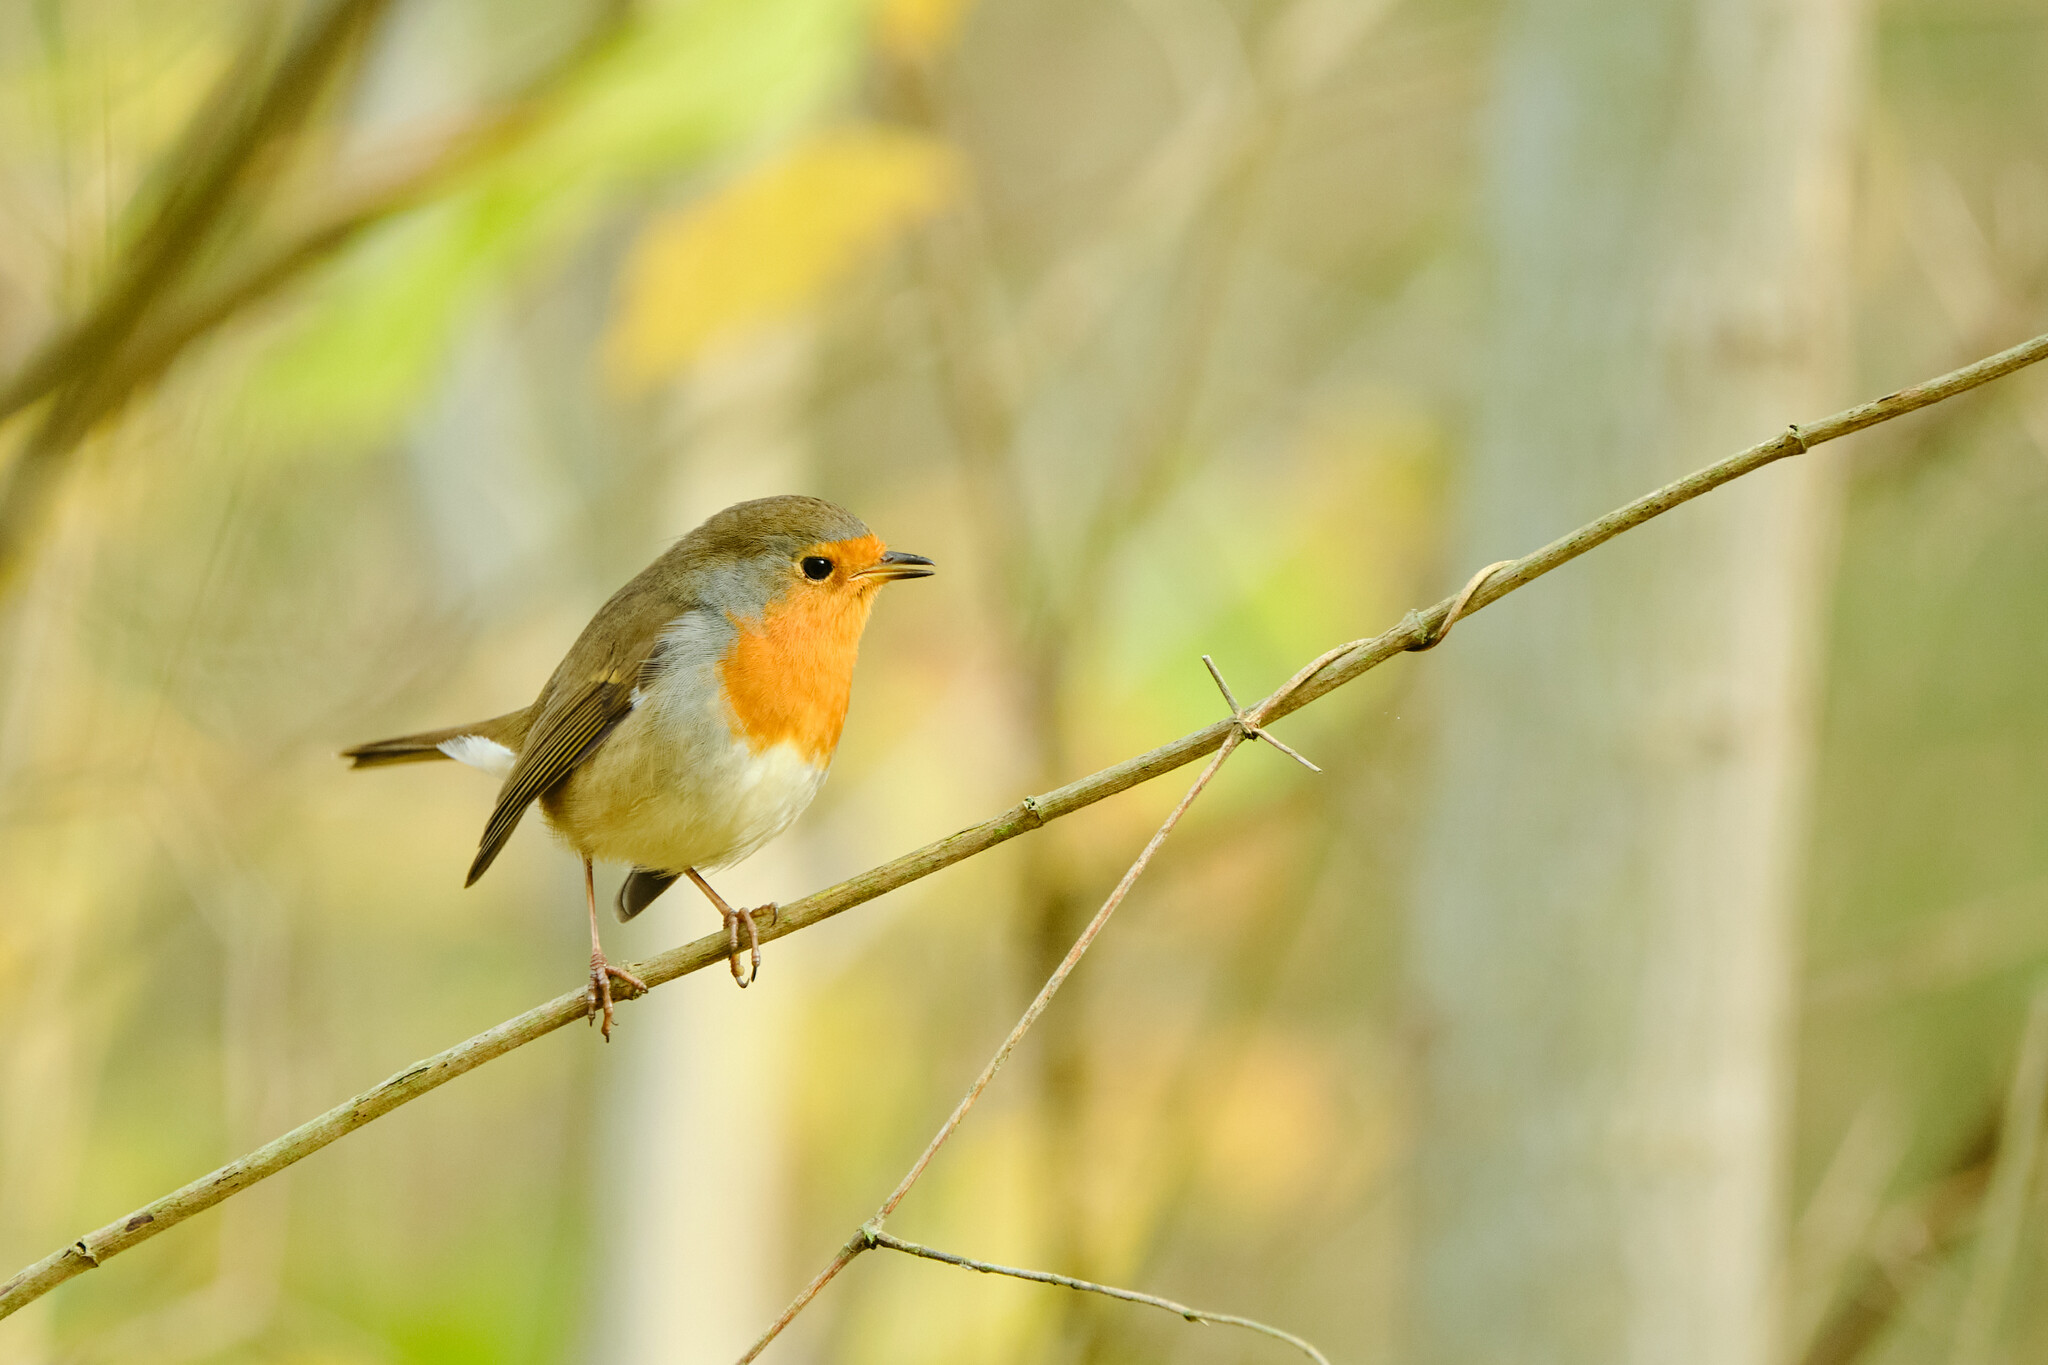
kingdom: Animalia
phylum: Chordata
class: Aves
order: Passeriformes
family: Muscicapidae
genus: Erithacus
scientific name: Erithacus rubecula
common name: European robin
